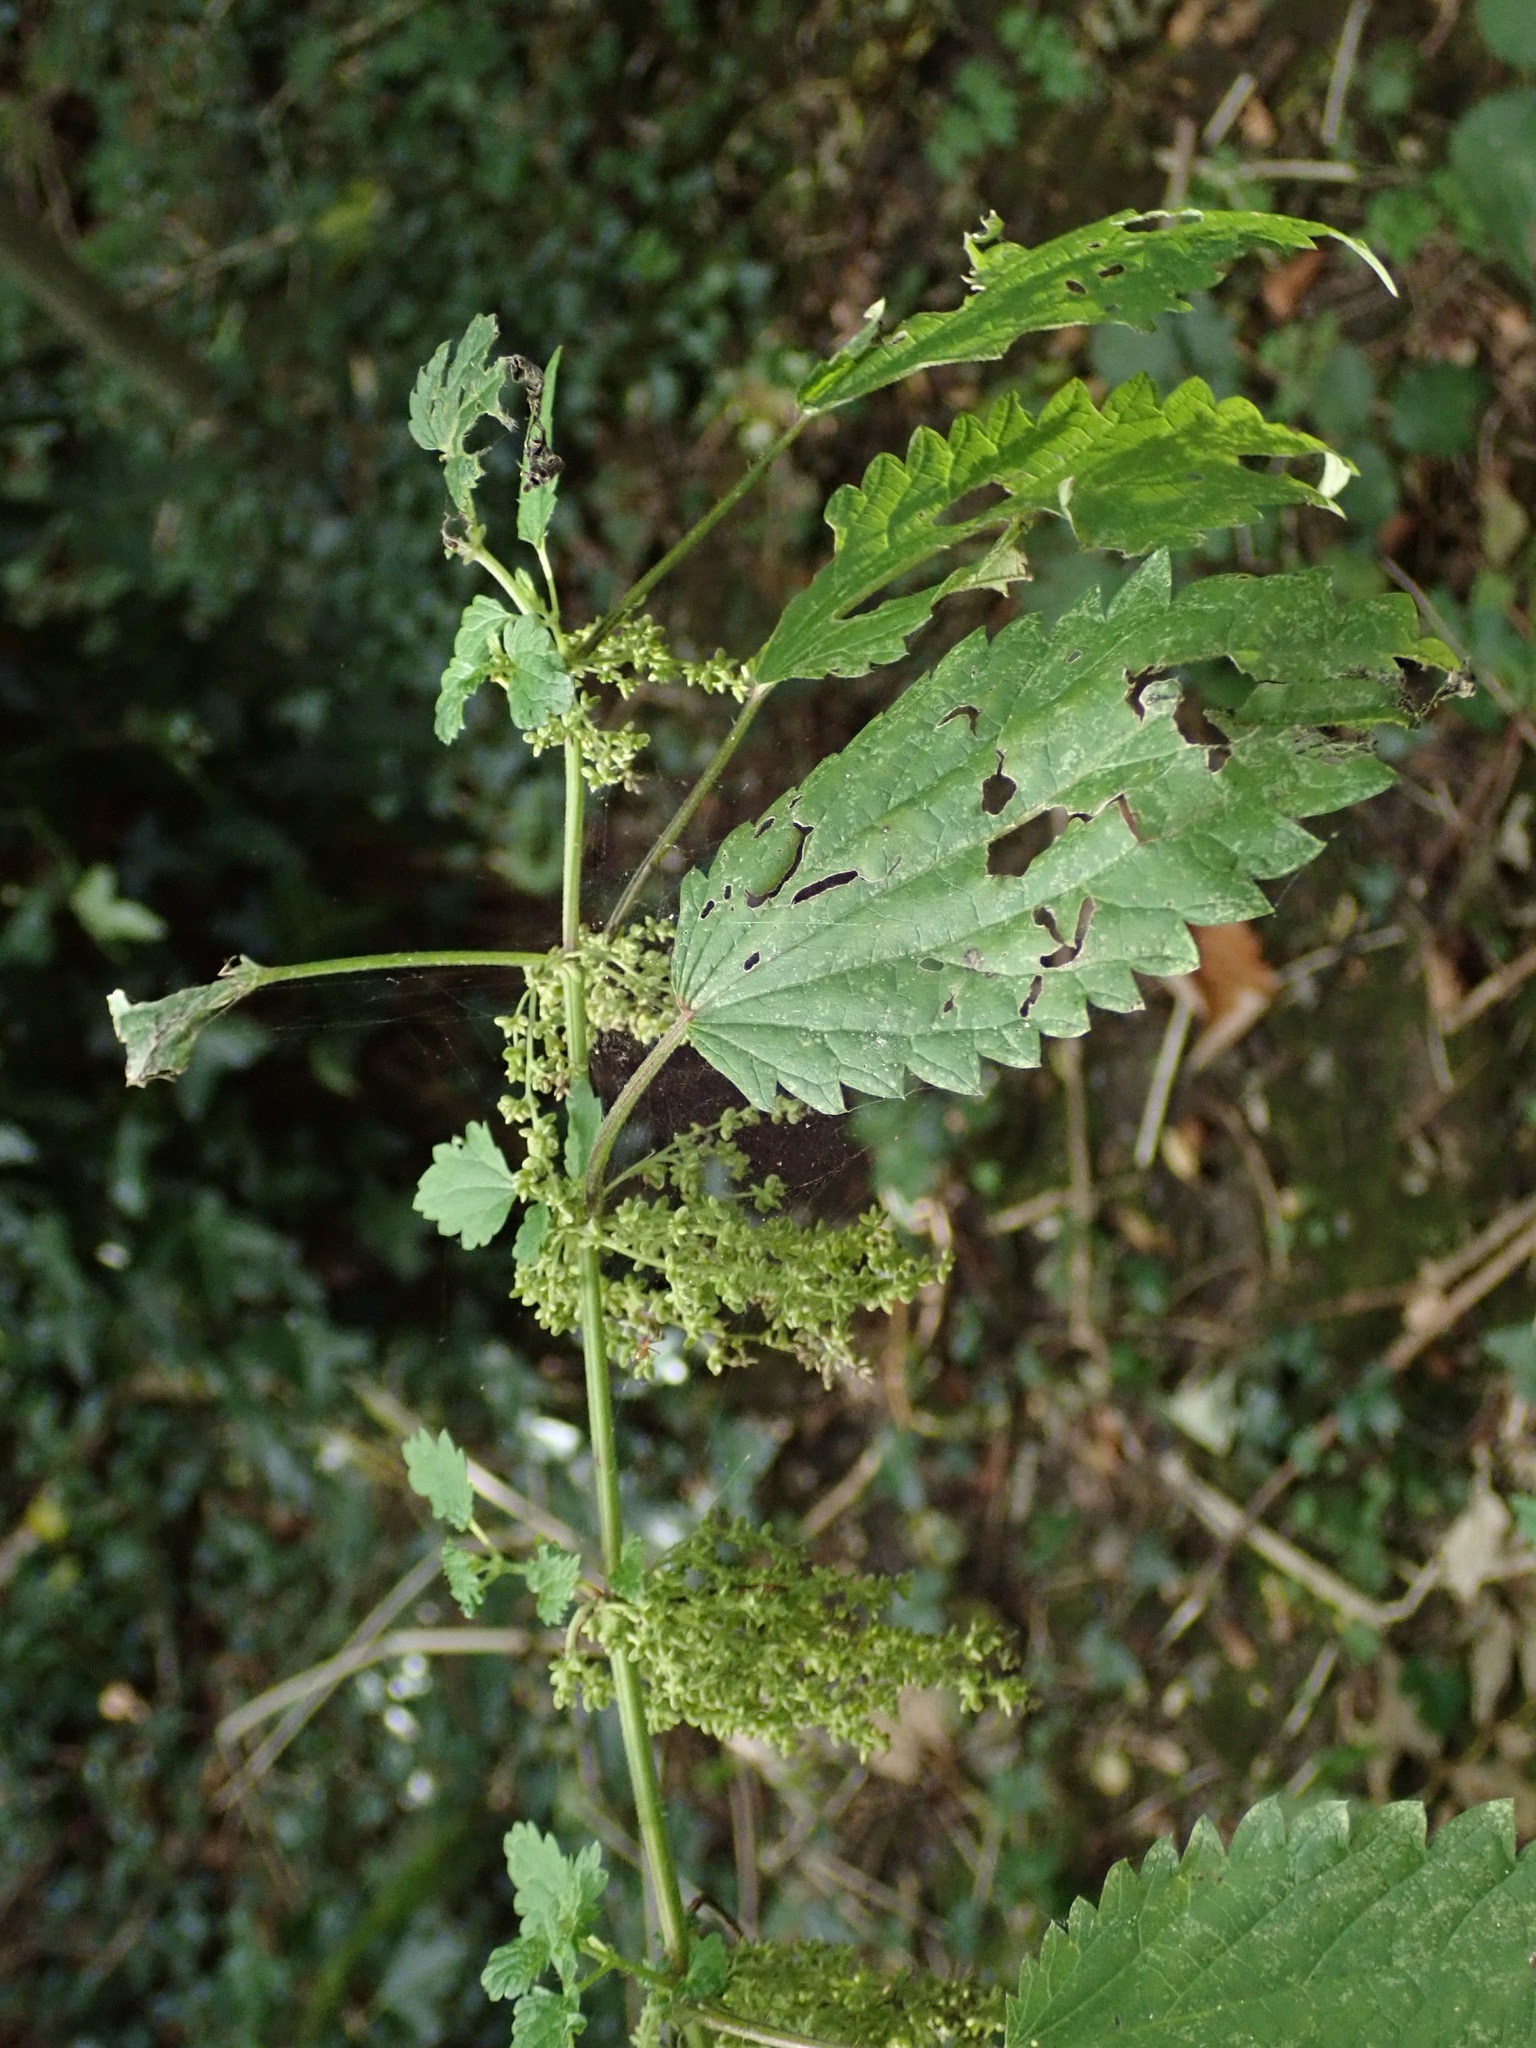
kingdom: Plantae
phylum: Tracheophyta
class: Magnoliopsida
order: Rosales
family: Urticaceae
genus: Urtica
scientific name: Urtica dioica
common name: Common nettle
